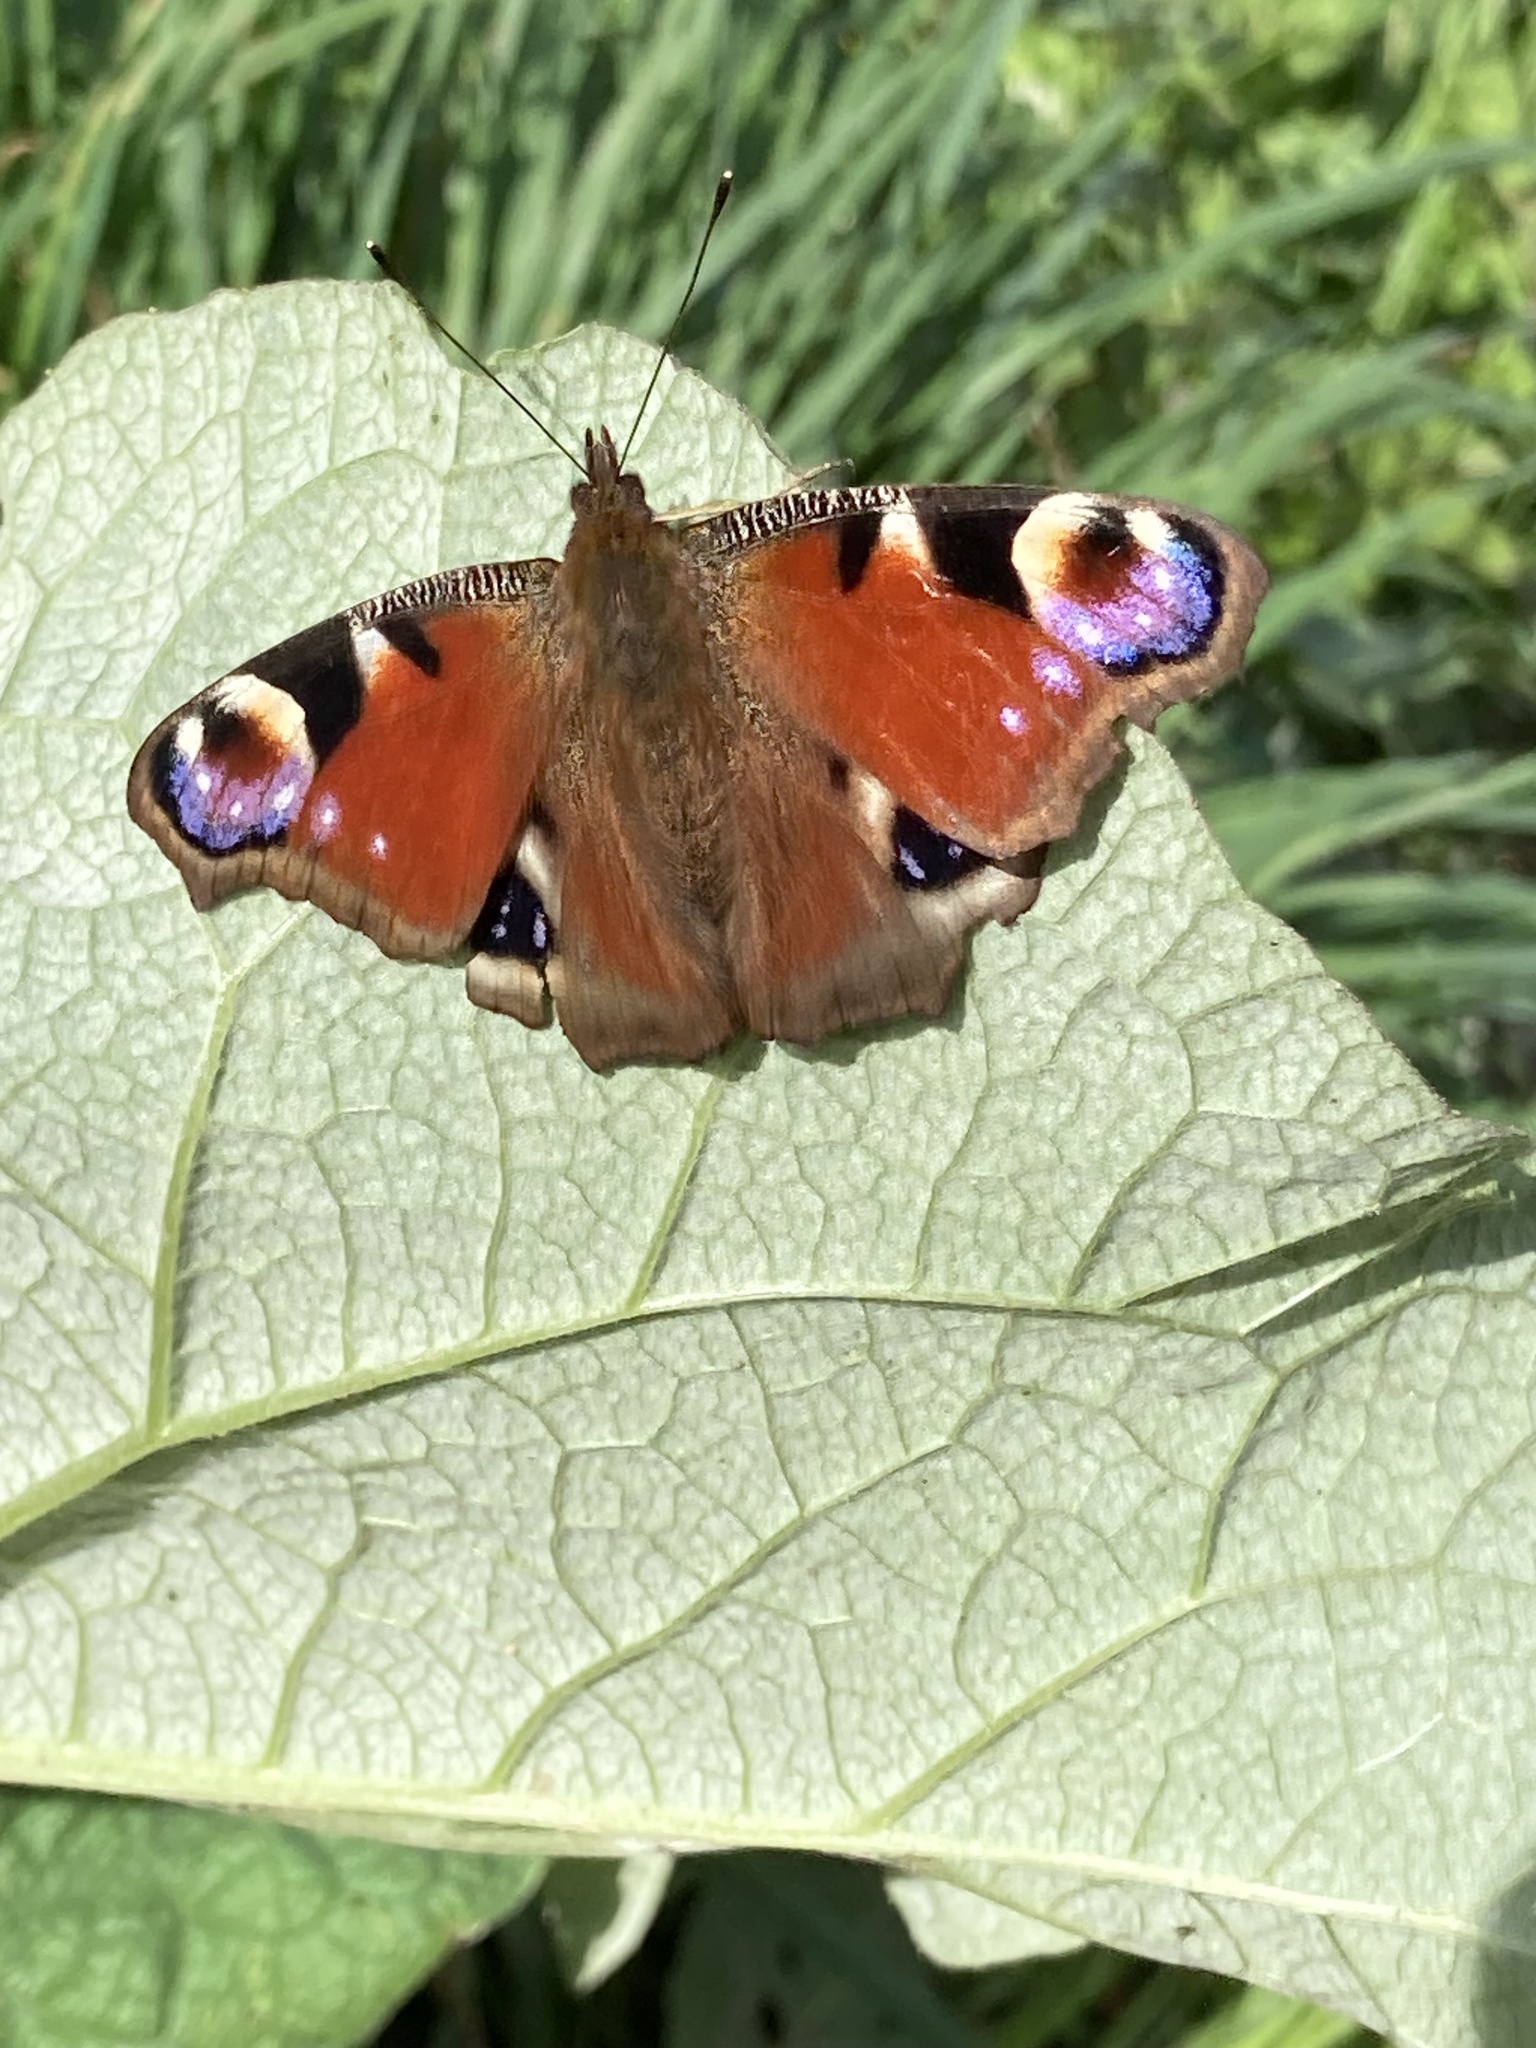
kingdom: Animalia
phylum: Arthropoda
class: Insecta
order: Lepidoptera
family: Nymphalidae
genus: Aglais
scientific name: Aglais io
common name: Peacock
